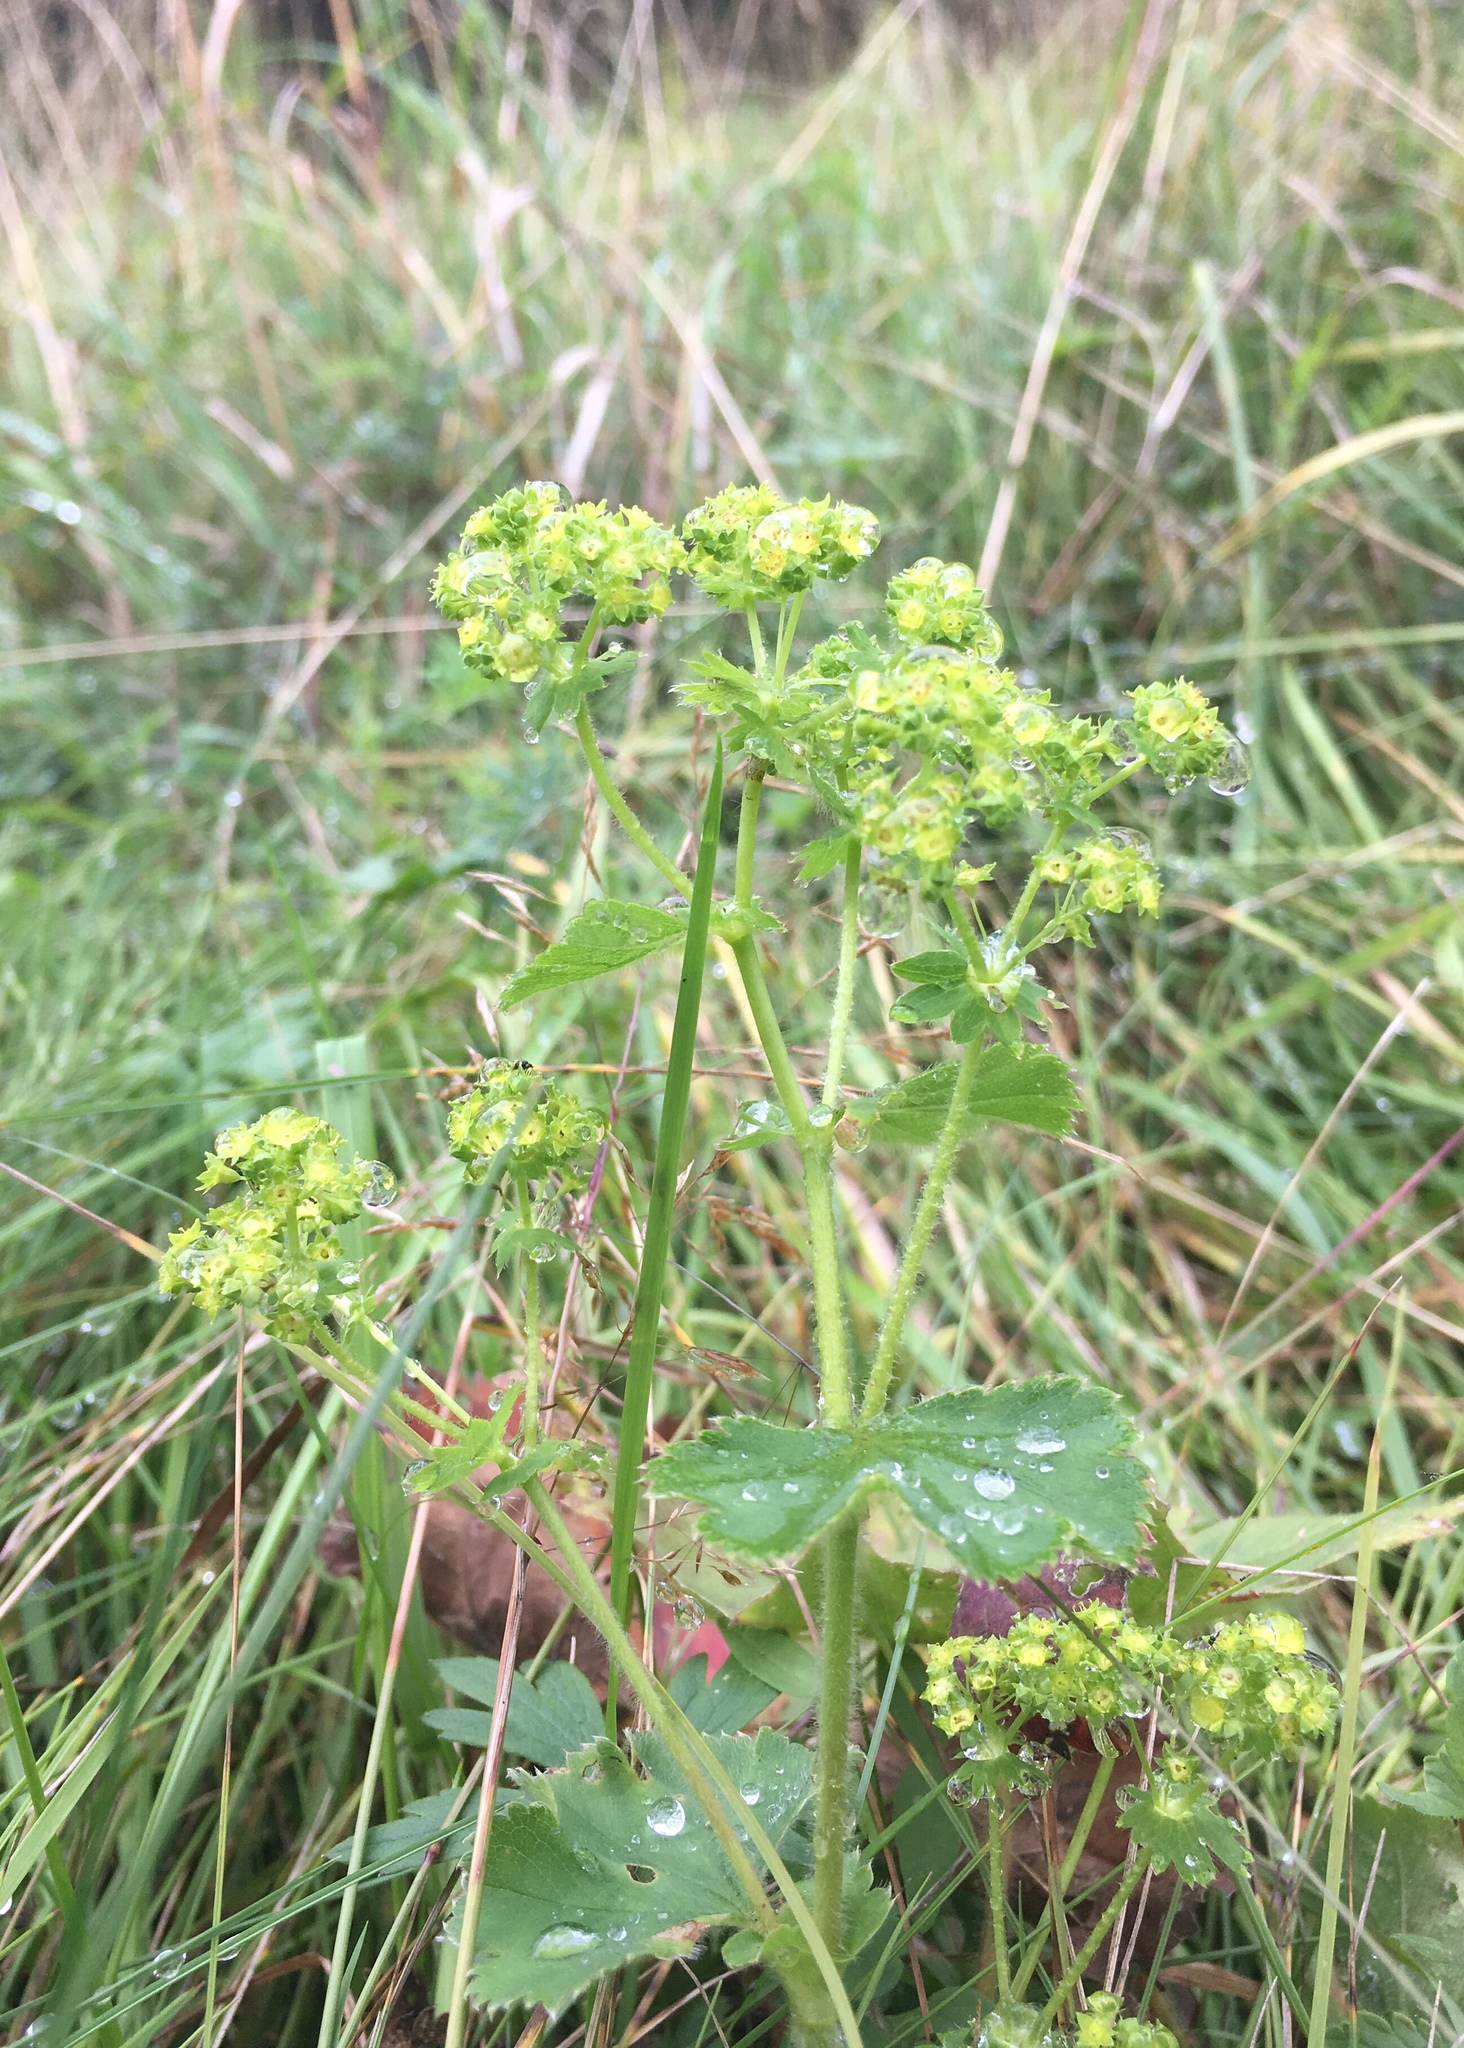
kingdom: Plantae
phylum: Tracheophyta
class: Magnoliopsida
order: Rosales
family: Rosaceae
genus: Alchemilla
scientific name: Alchemilla breviloba
